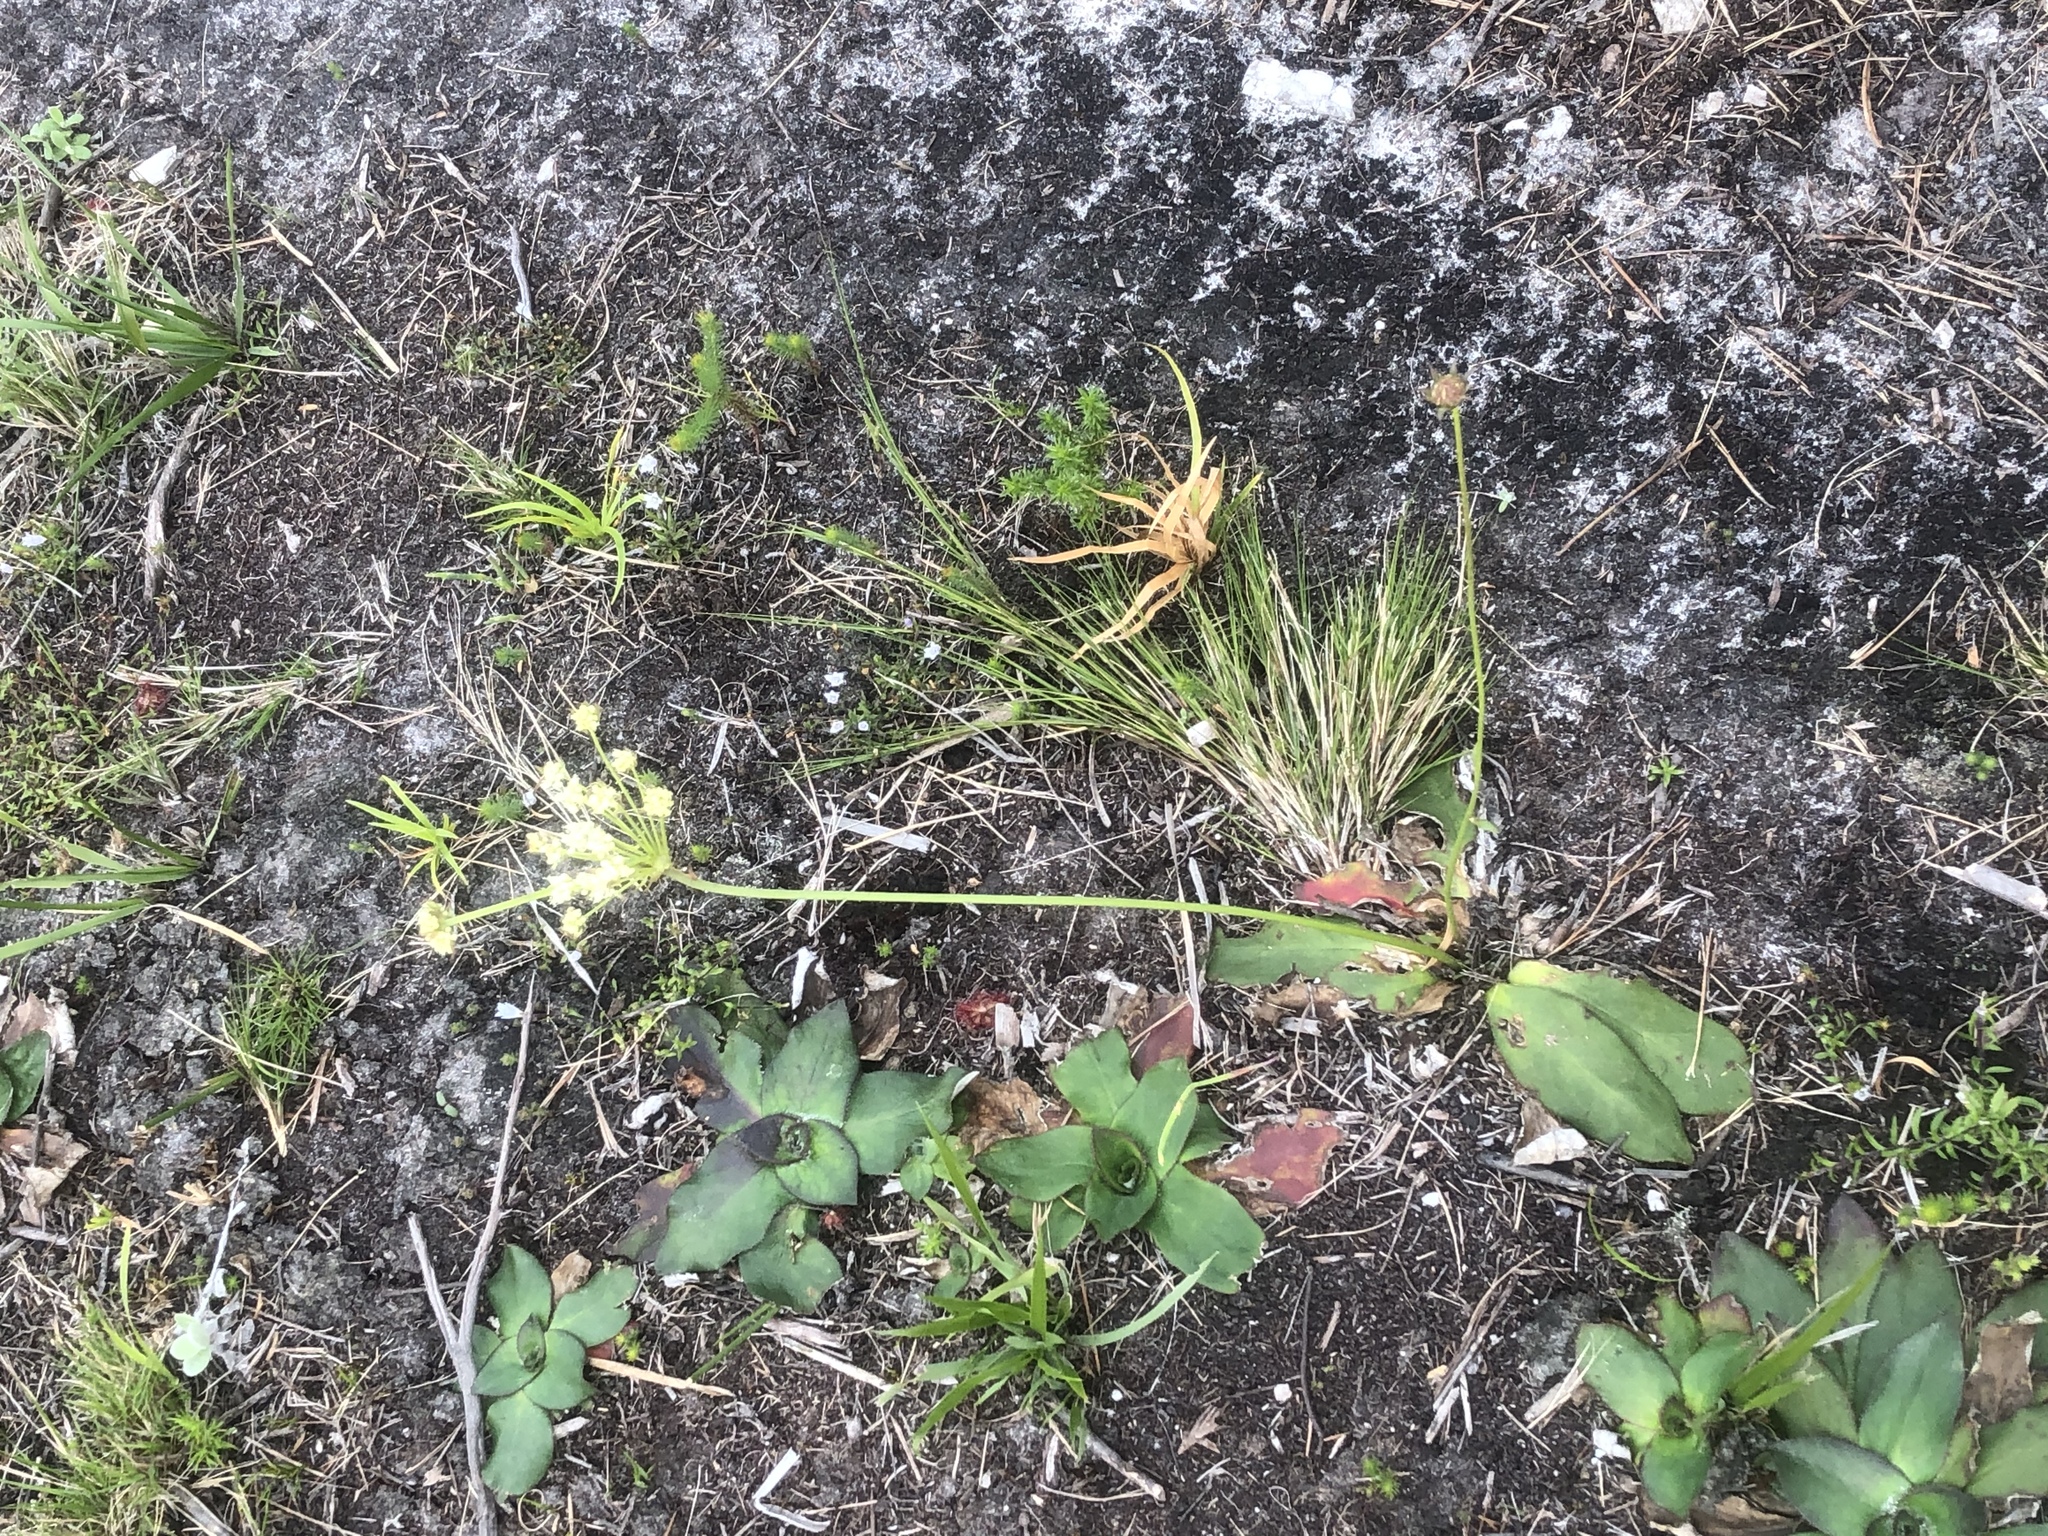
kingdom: Plantae
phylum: Tracheophyta
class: Magnoliopsida
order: Apiales
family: Apiaceae
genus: Hermas
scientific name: Hermas ciliata
